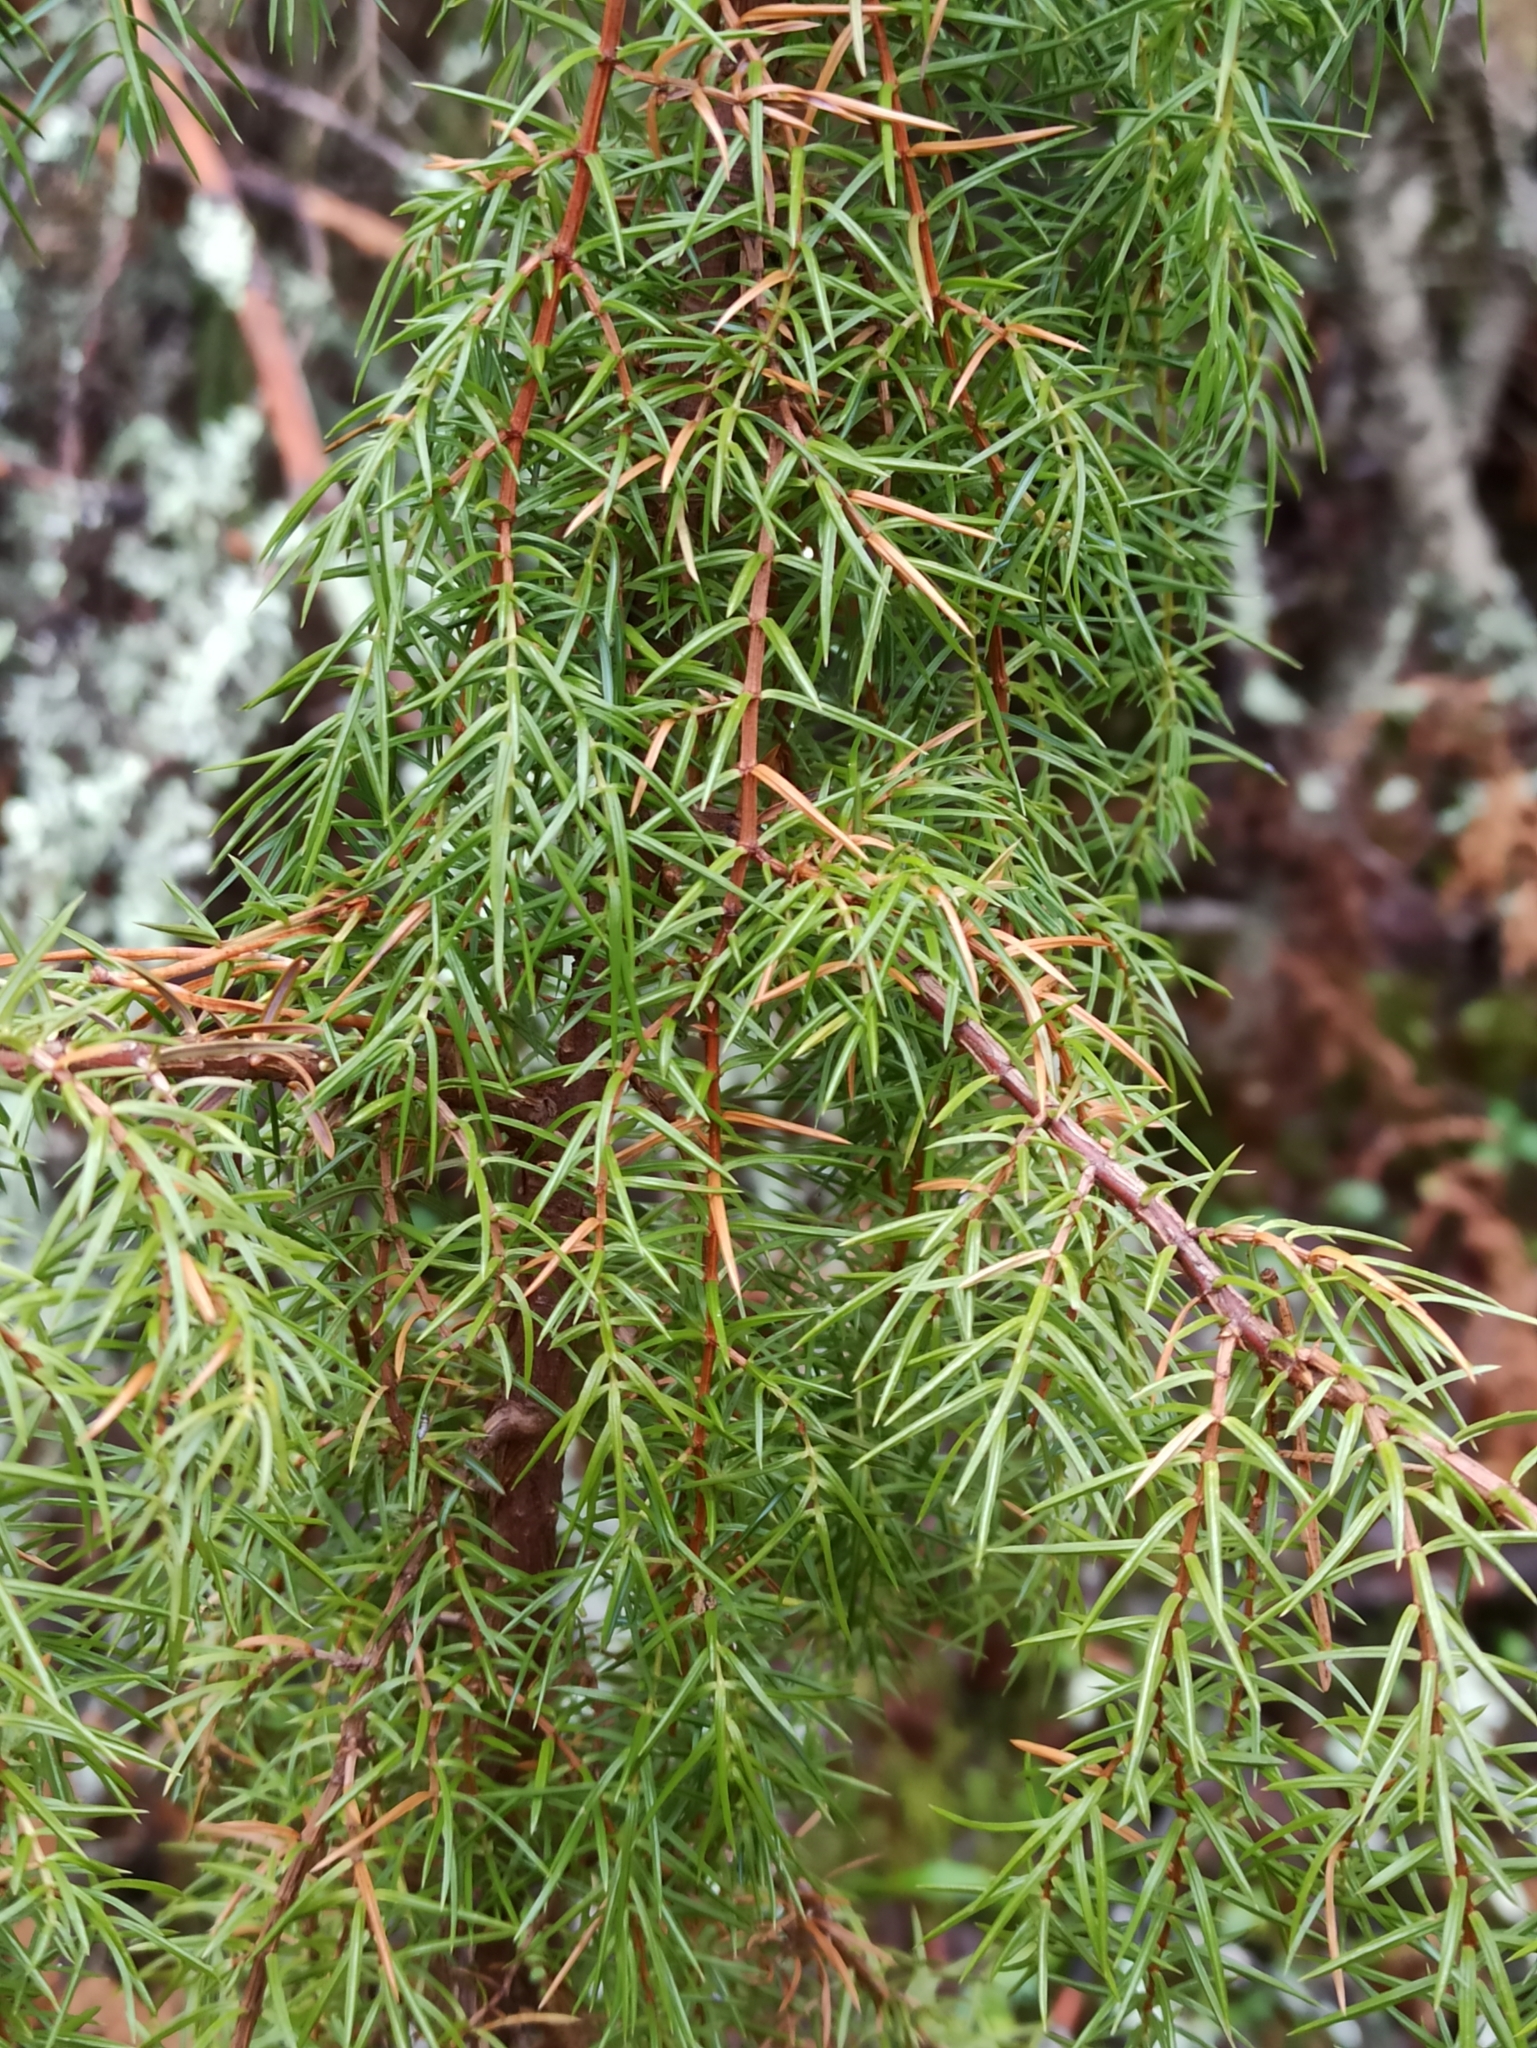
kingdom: Plantae
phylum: Tracheophyta
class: Pinopsida
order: Pinales
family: Cupressaceae
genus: Juniperus
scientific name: Juniperus communis
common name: Common juniper
